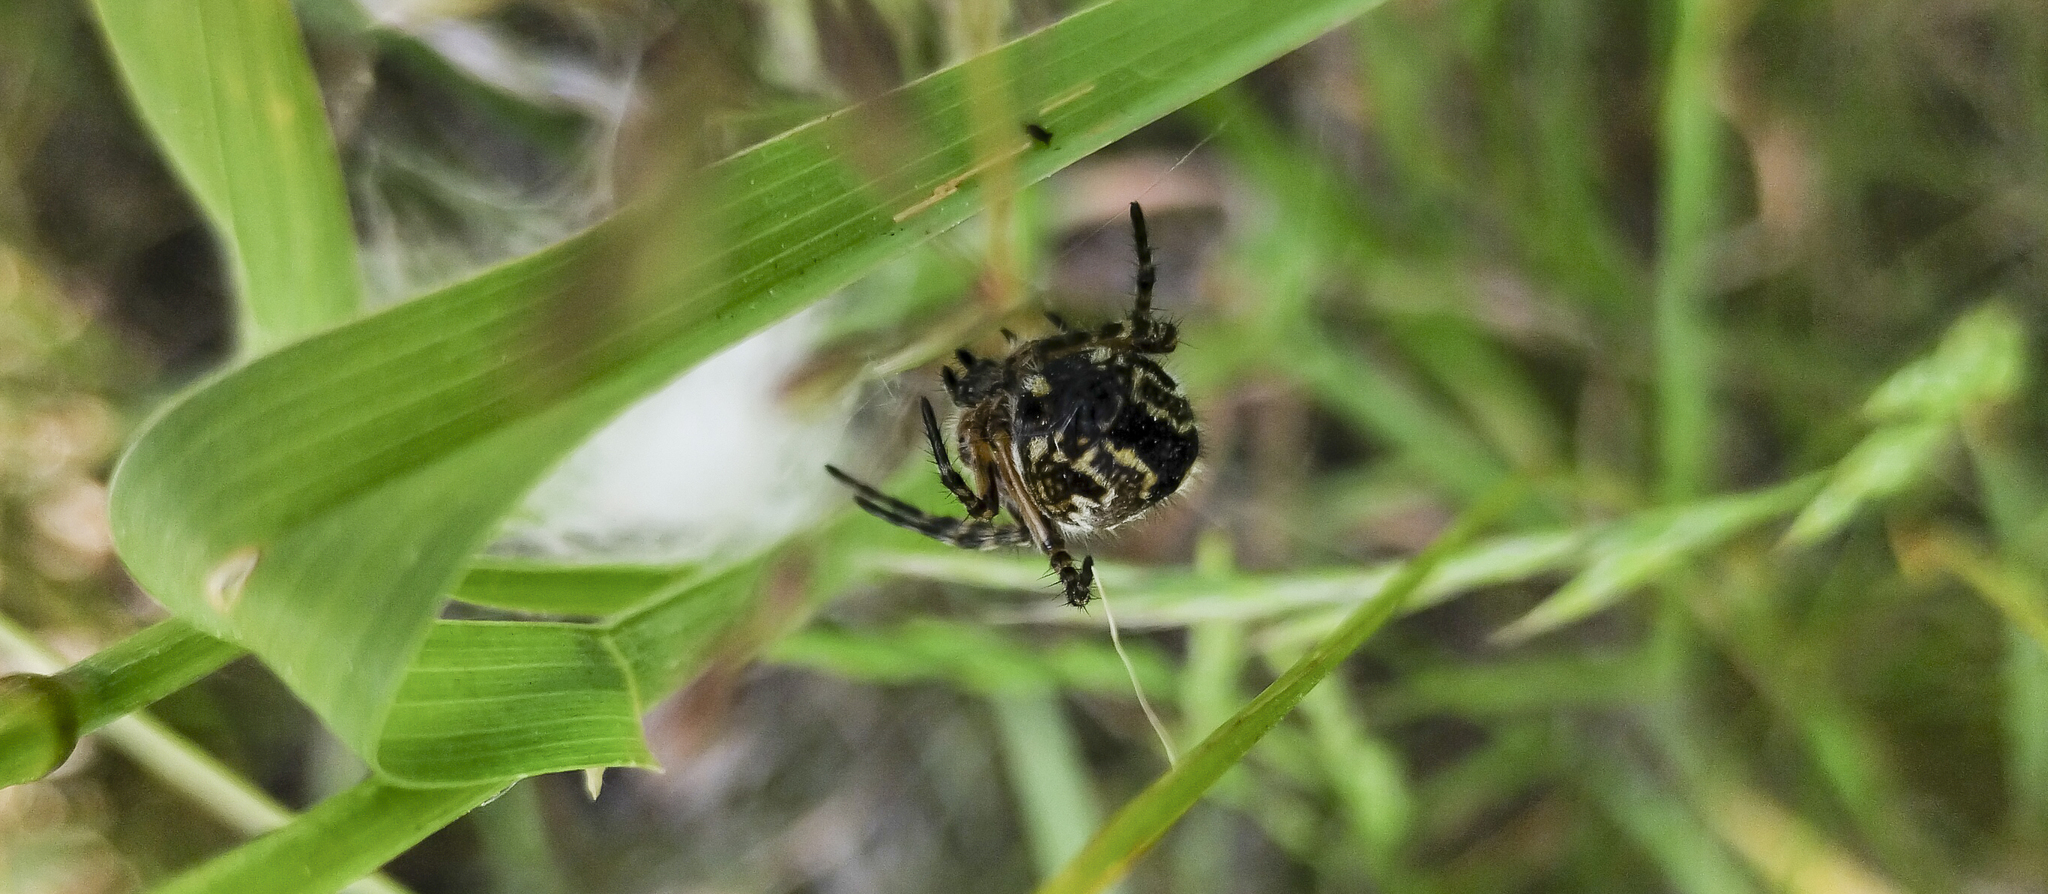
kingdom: Animalia
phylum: Arthropoda
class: Arachnida
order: Araneae
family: Araneidae
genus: Aculepeira
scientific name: Aculepeira ceropegia
